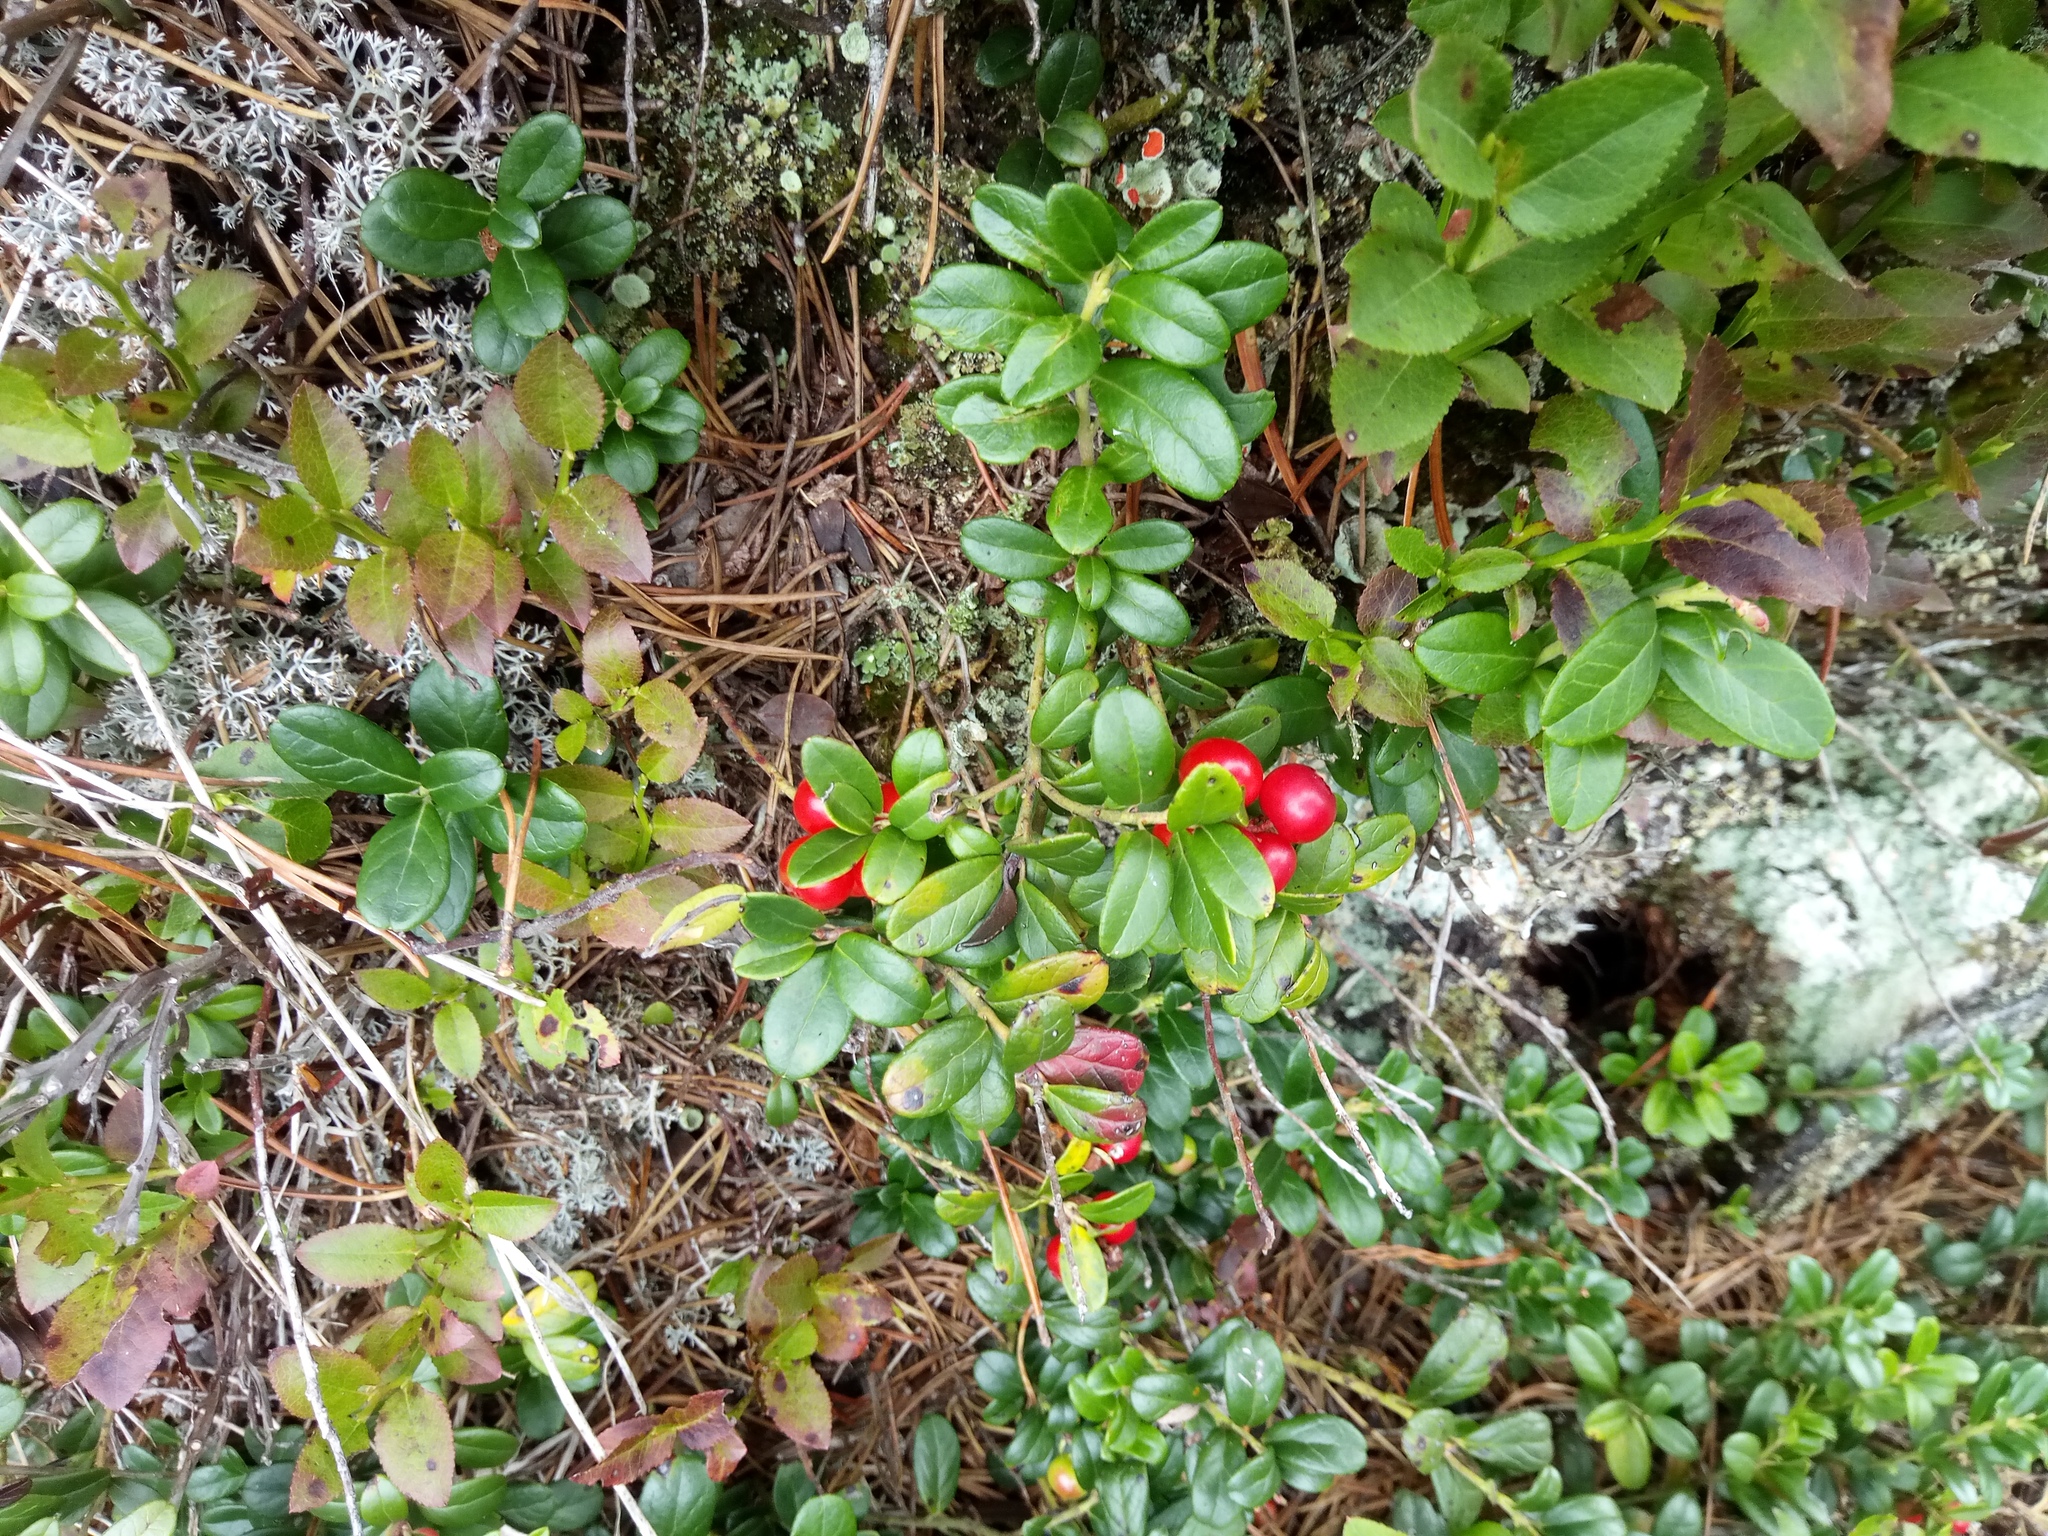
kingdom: Plantae
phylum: Tracheophyta
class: Magnoliopsida
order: Ericales
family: Ericaceae
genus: Vaccinium
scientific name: Vaccinium vitis-idaea
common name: Cowberry
